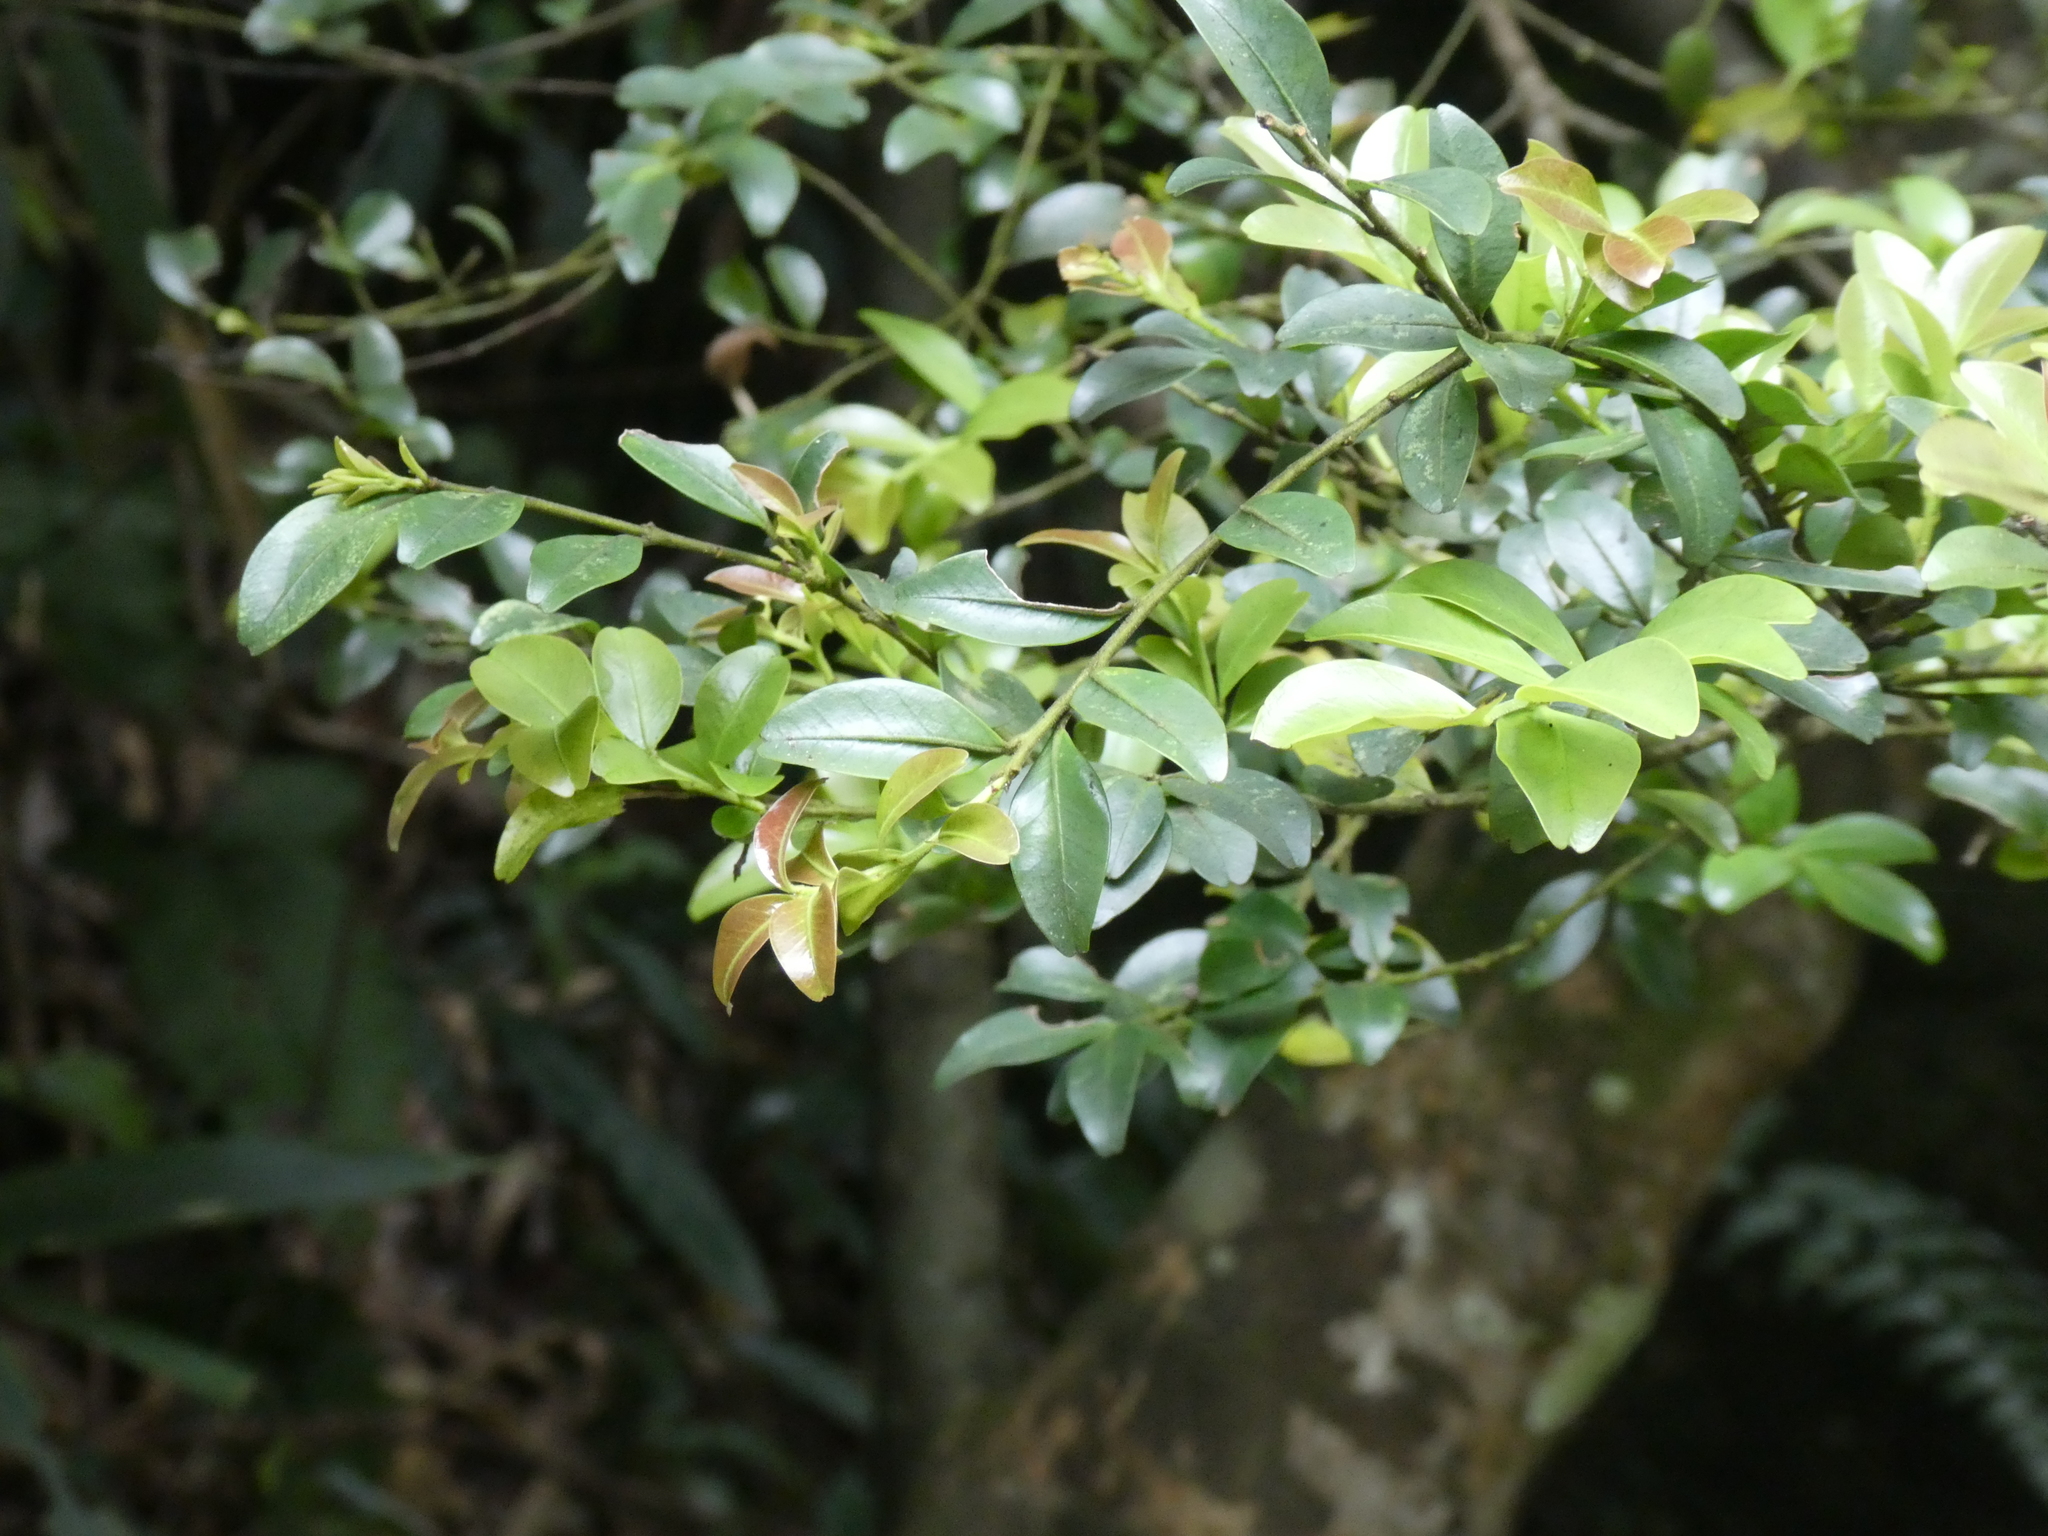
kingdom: Plantae
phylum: Tracheophyta
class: Magnoliopsida
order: Aquifoliales
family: Aquifoliaceae
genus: Ilex
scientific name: Ilex lohfauensis
